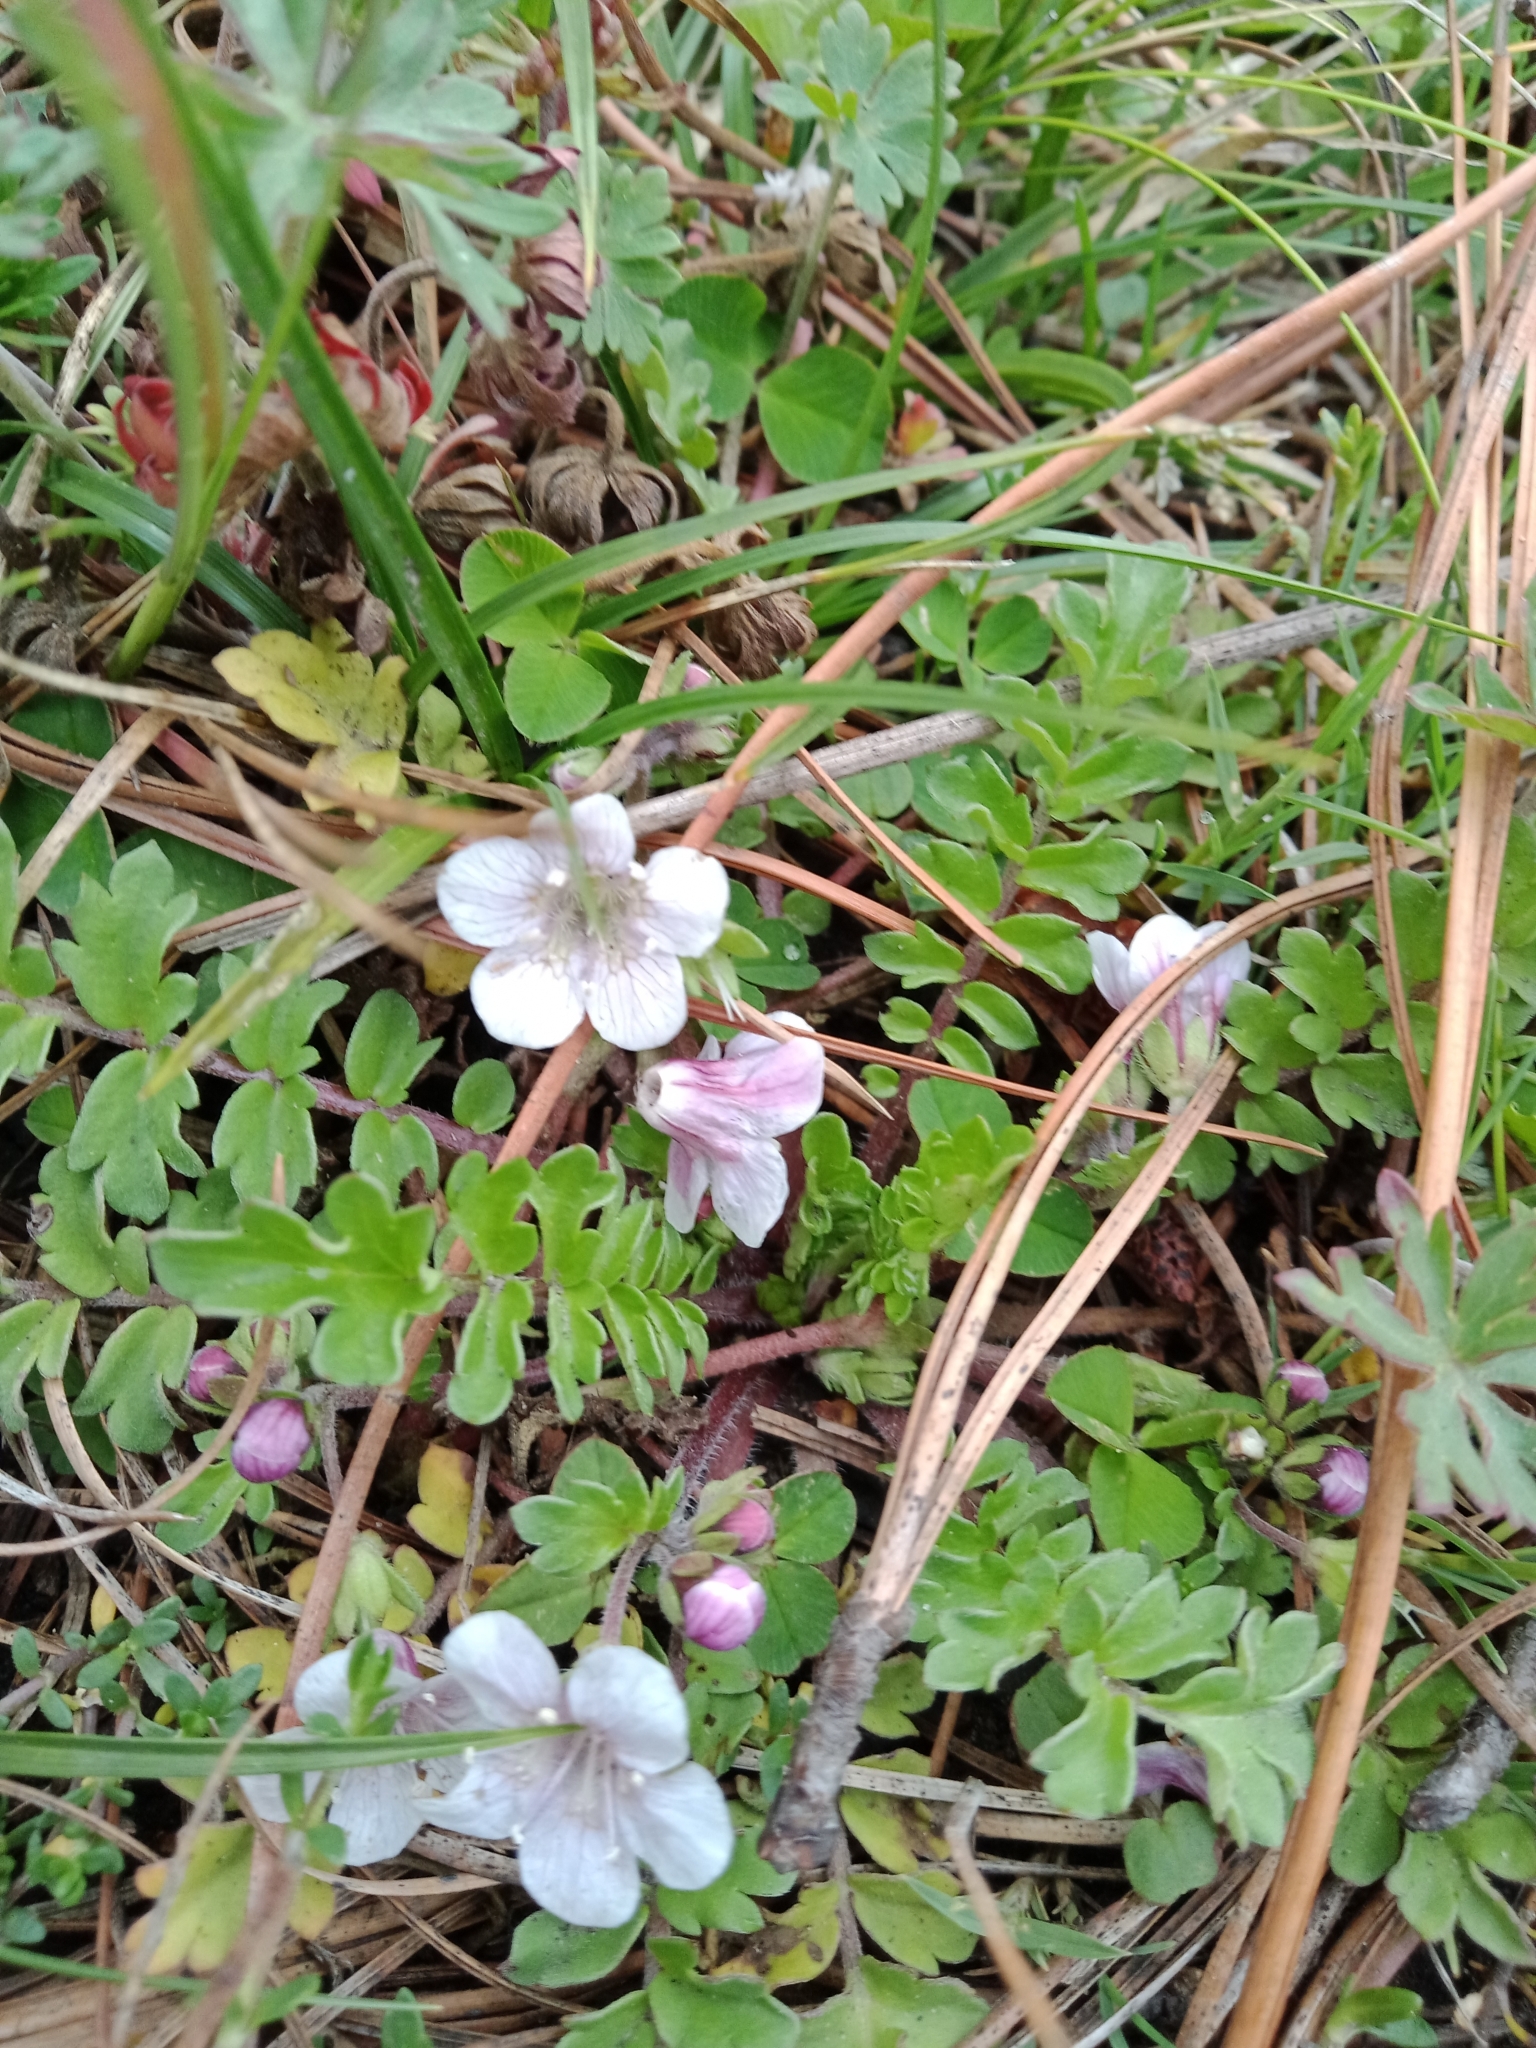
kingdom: Plantae
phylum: Tracheophyta
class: Magnoliopsida
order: Boraginales
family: Hydrophyllaceae
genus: Phacelia
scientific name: Phacelia platycarpa
